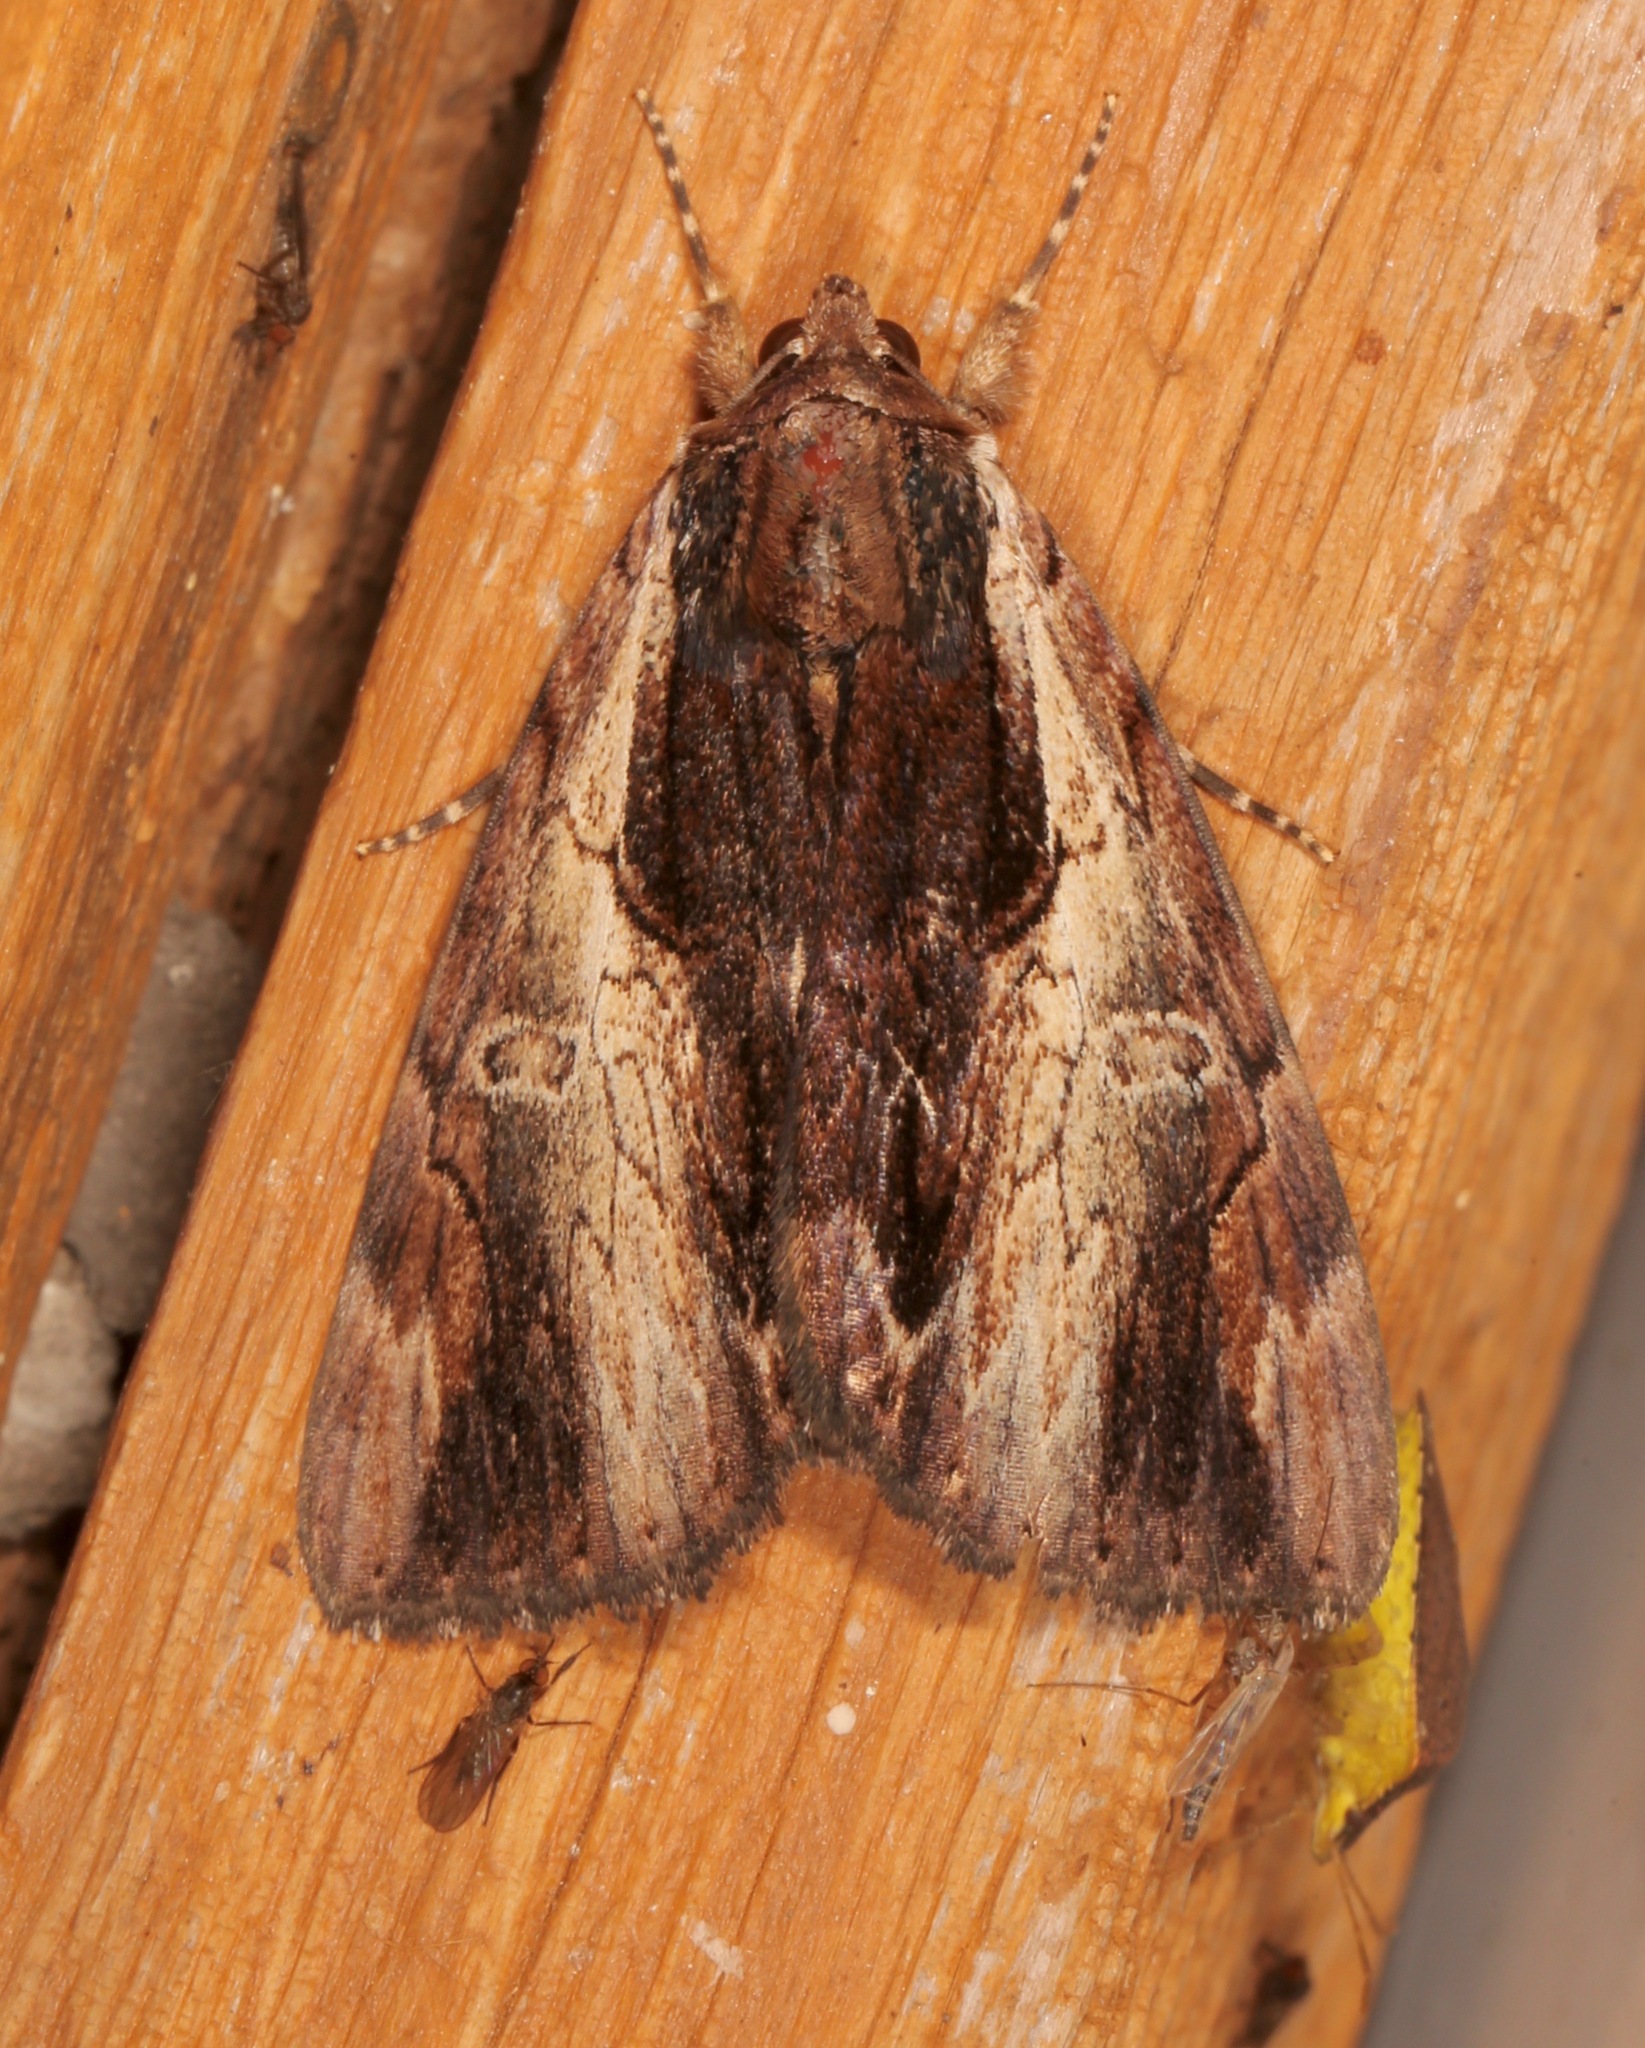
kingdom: Animalia
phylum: Arthropoda
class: Insecta
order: Lepidoptera
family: Erebidae
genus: Catocala
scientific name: Catocala ultronia
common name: Ultronia underwing
